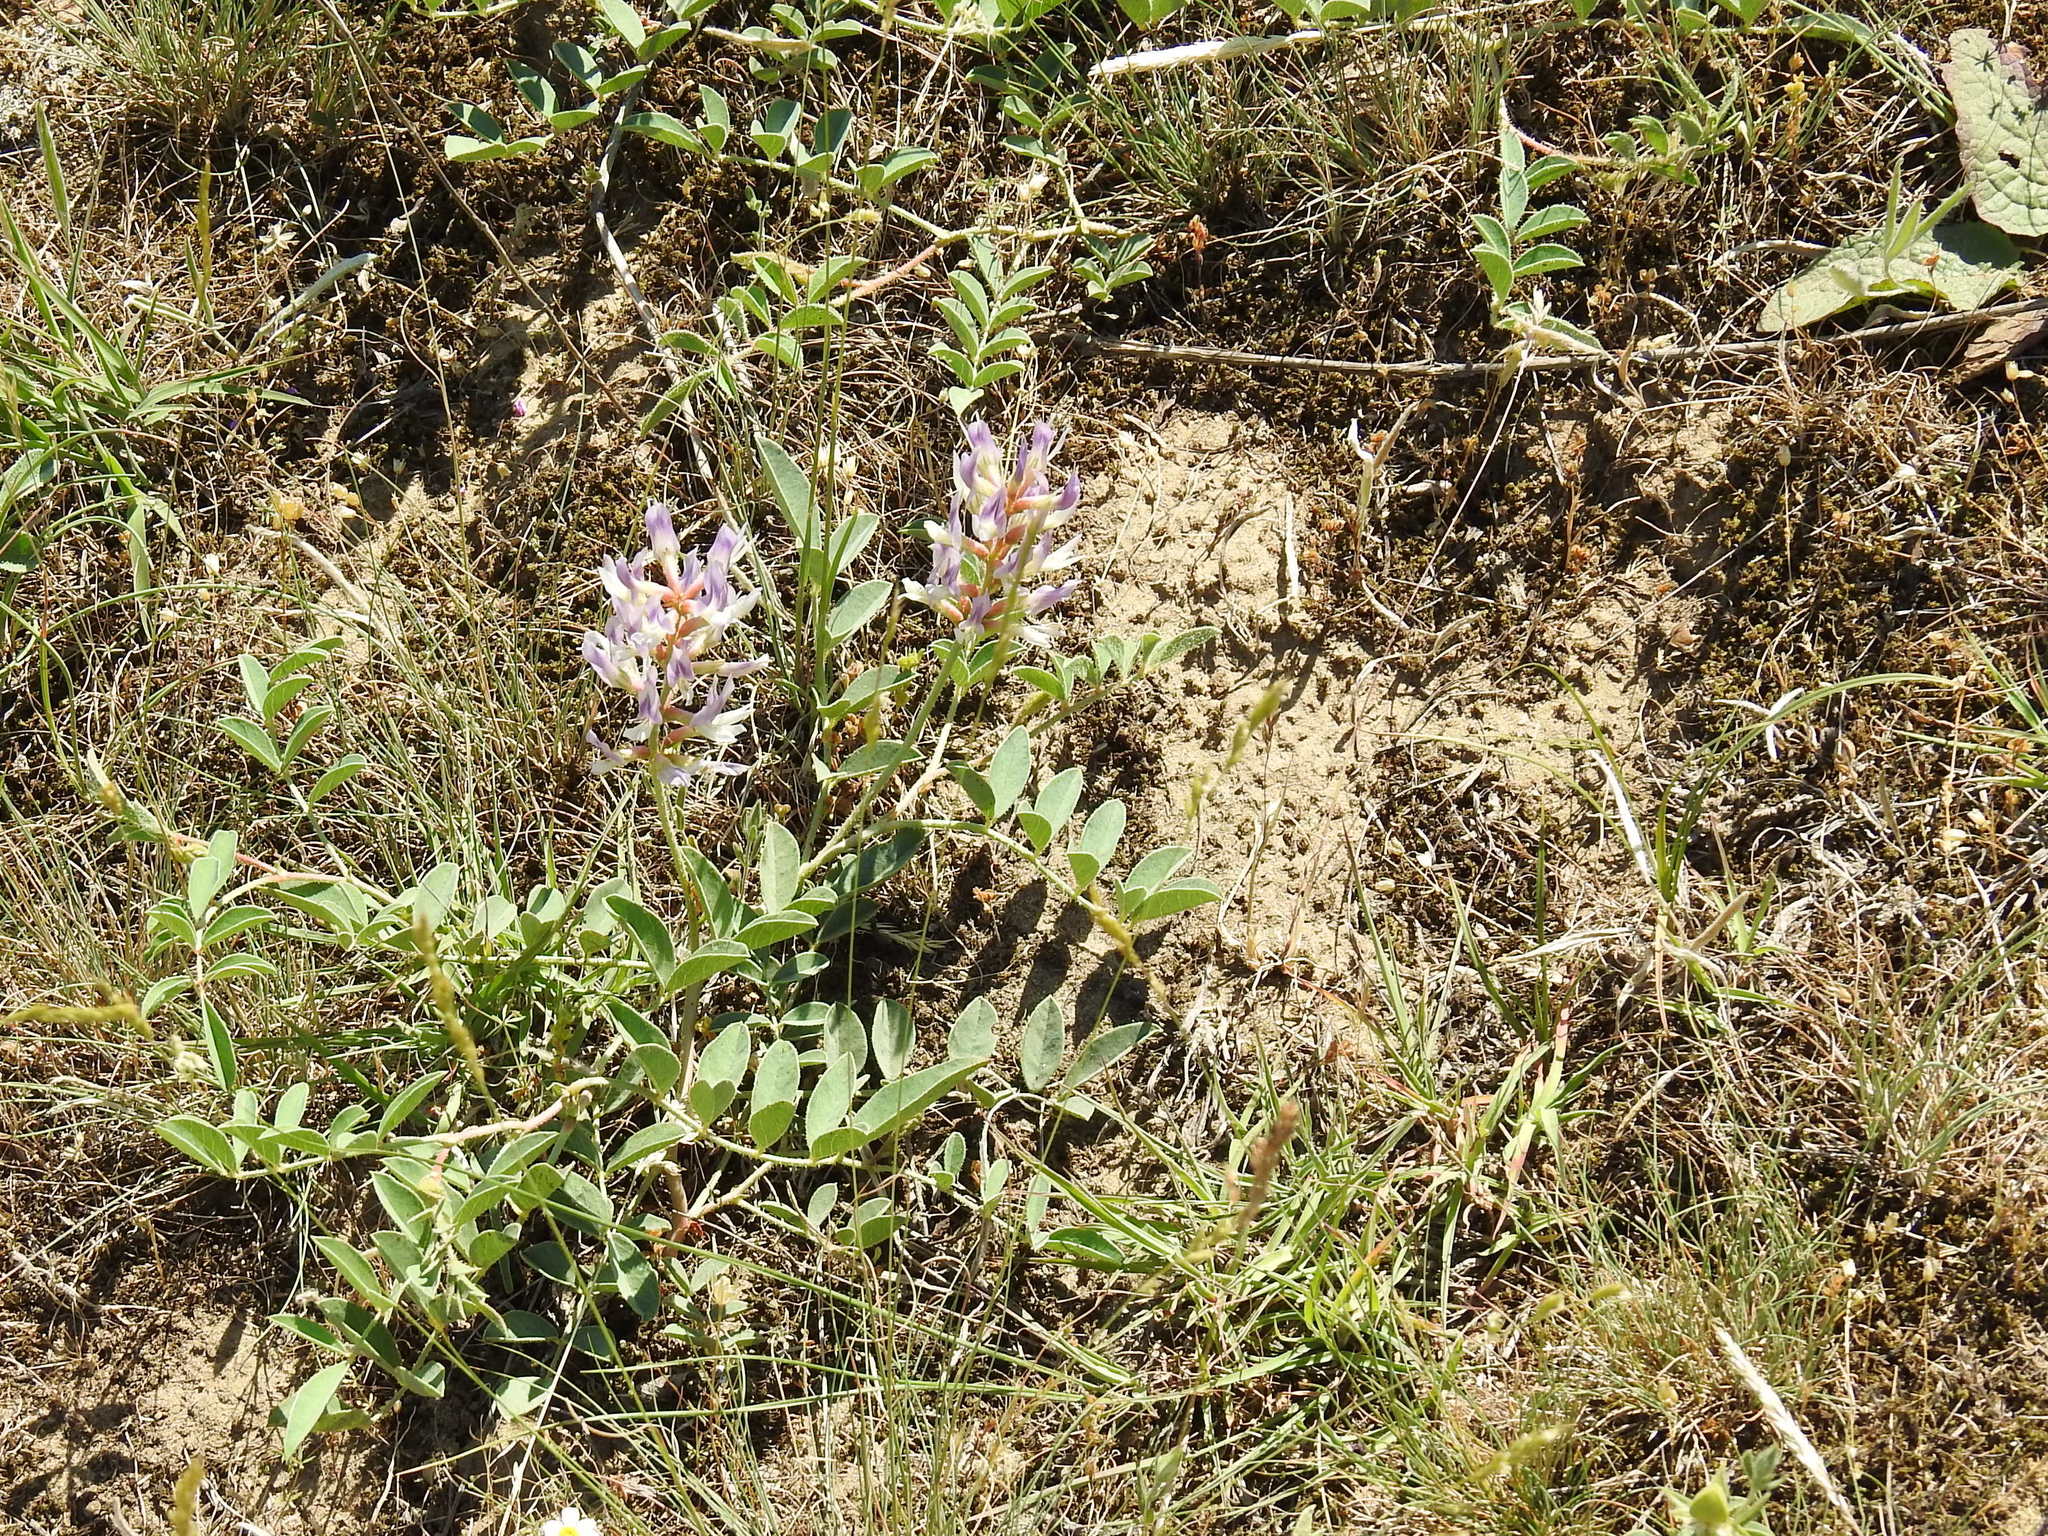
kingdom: Plantae
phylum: Tracheophyta
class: Magnoliopsida
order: Fabales
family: Fabaceae
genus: Glycyrrhiza
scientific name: Glycyrrhiza glabra
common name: Liquorice
